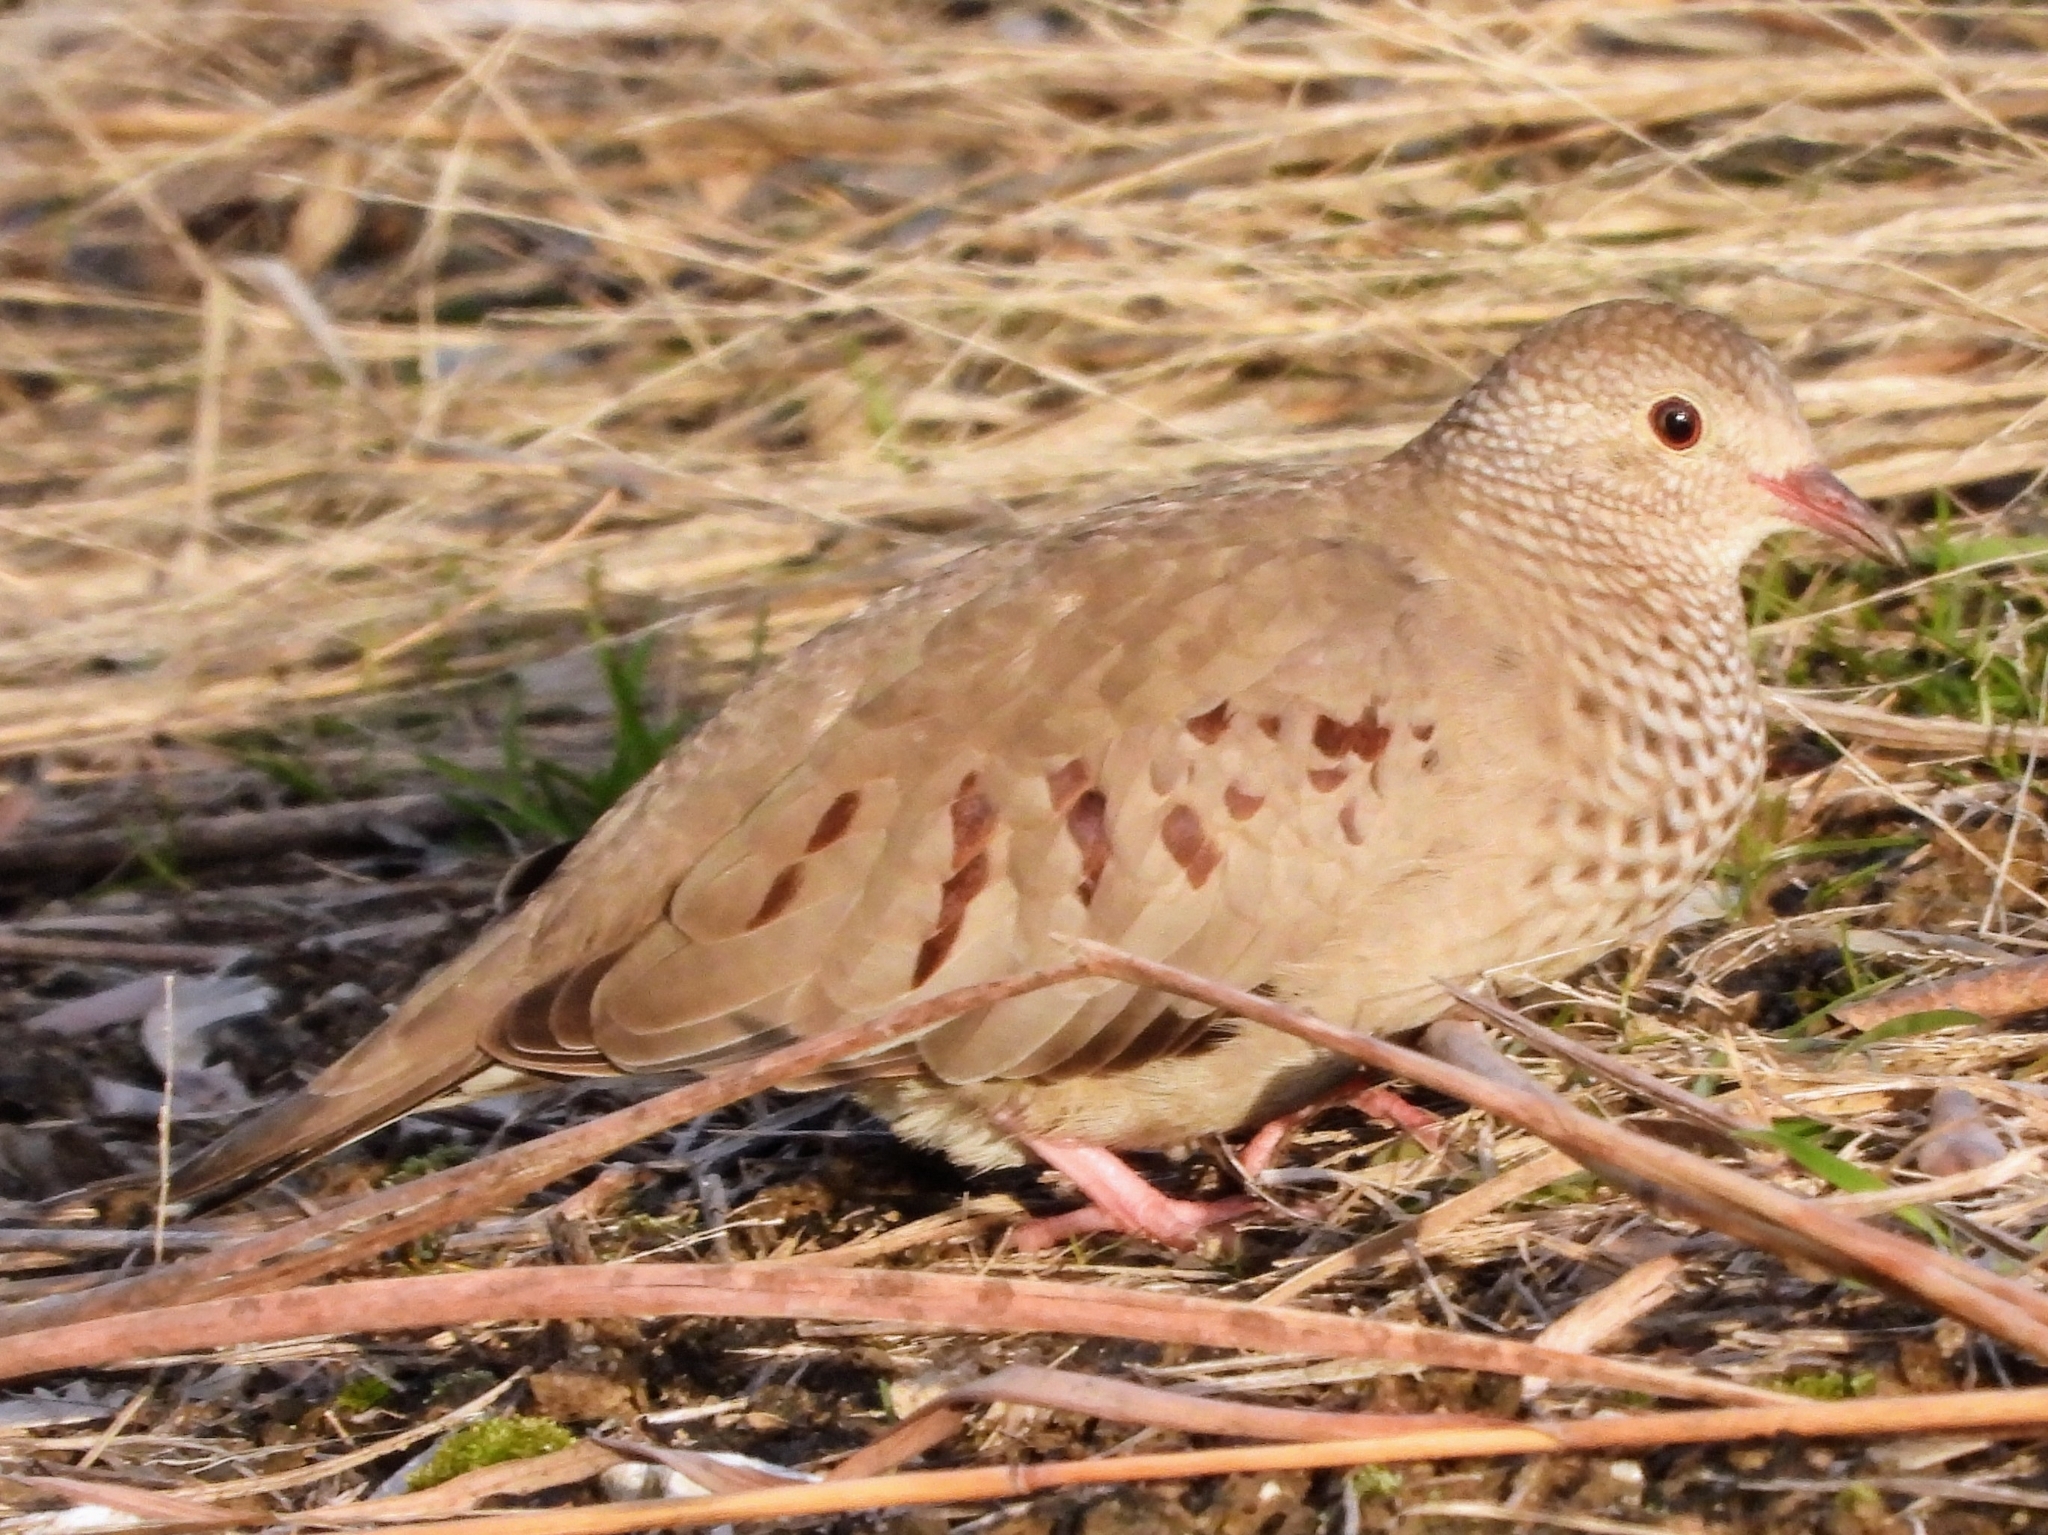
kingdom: Animalia
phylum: Chordata
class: Aves
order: Columbiformes
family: Columbidae
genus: Columbina
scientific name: Columbina passerina
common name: Common ground-dove
